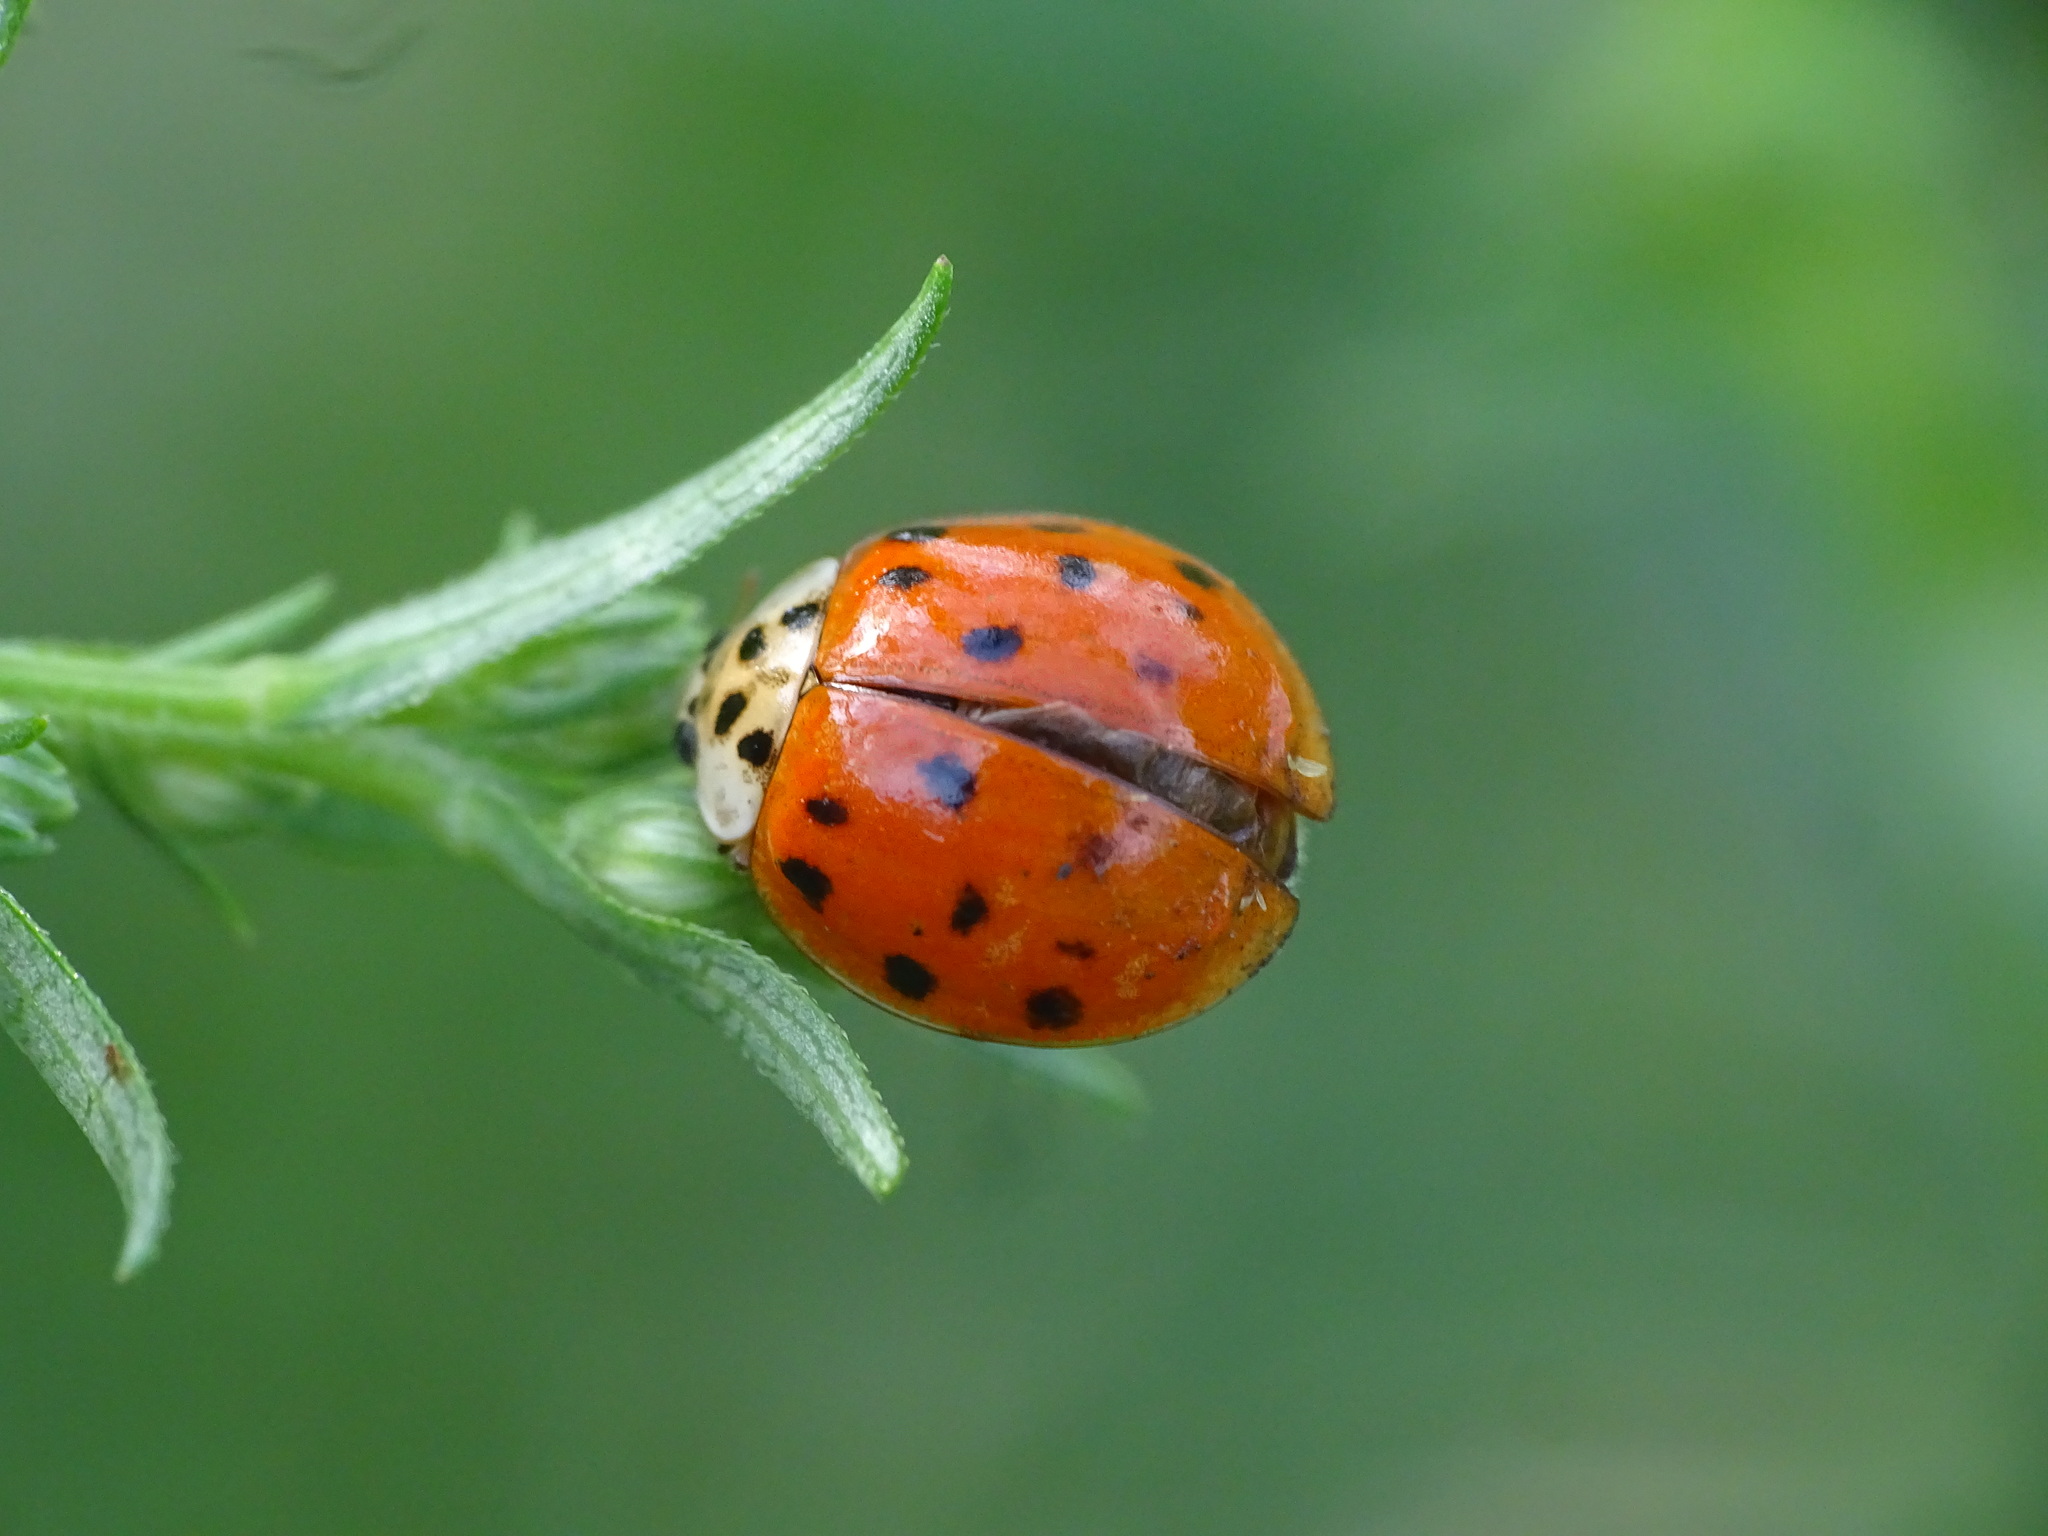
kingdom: Animalia
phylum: Arthropoda
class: Insecta
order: Coleoptera
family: Coccinellidae
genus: Harmonia
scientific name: Harmonia axyridis
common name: Harlequin ladybird
